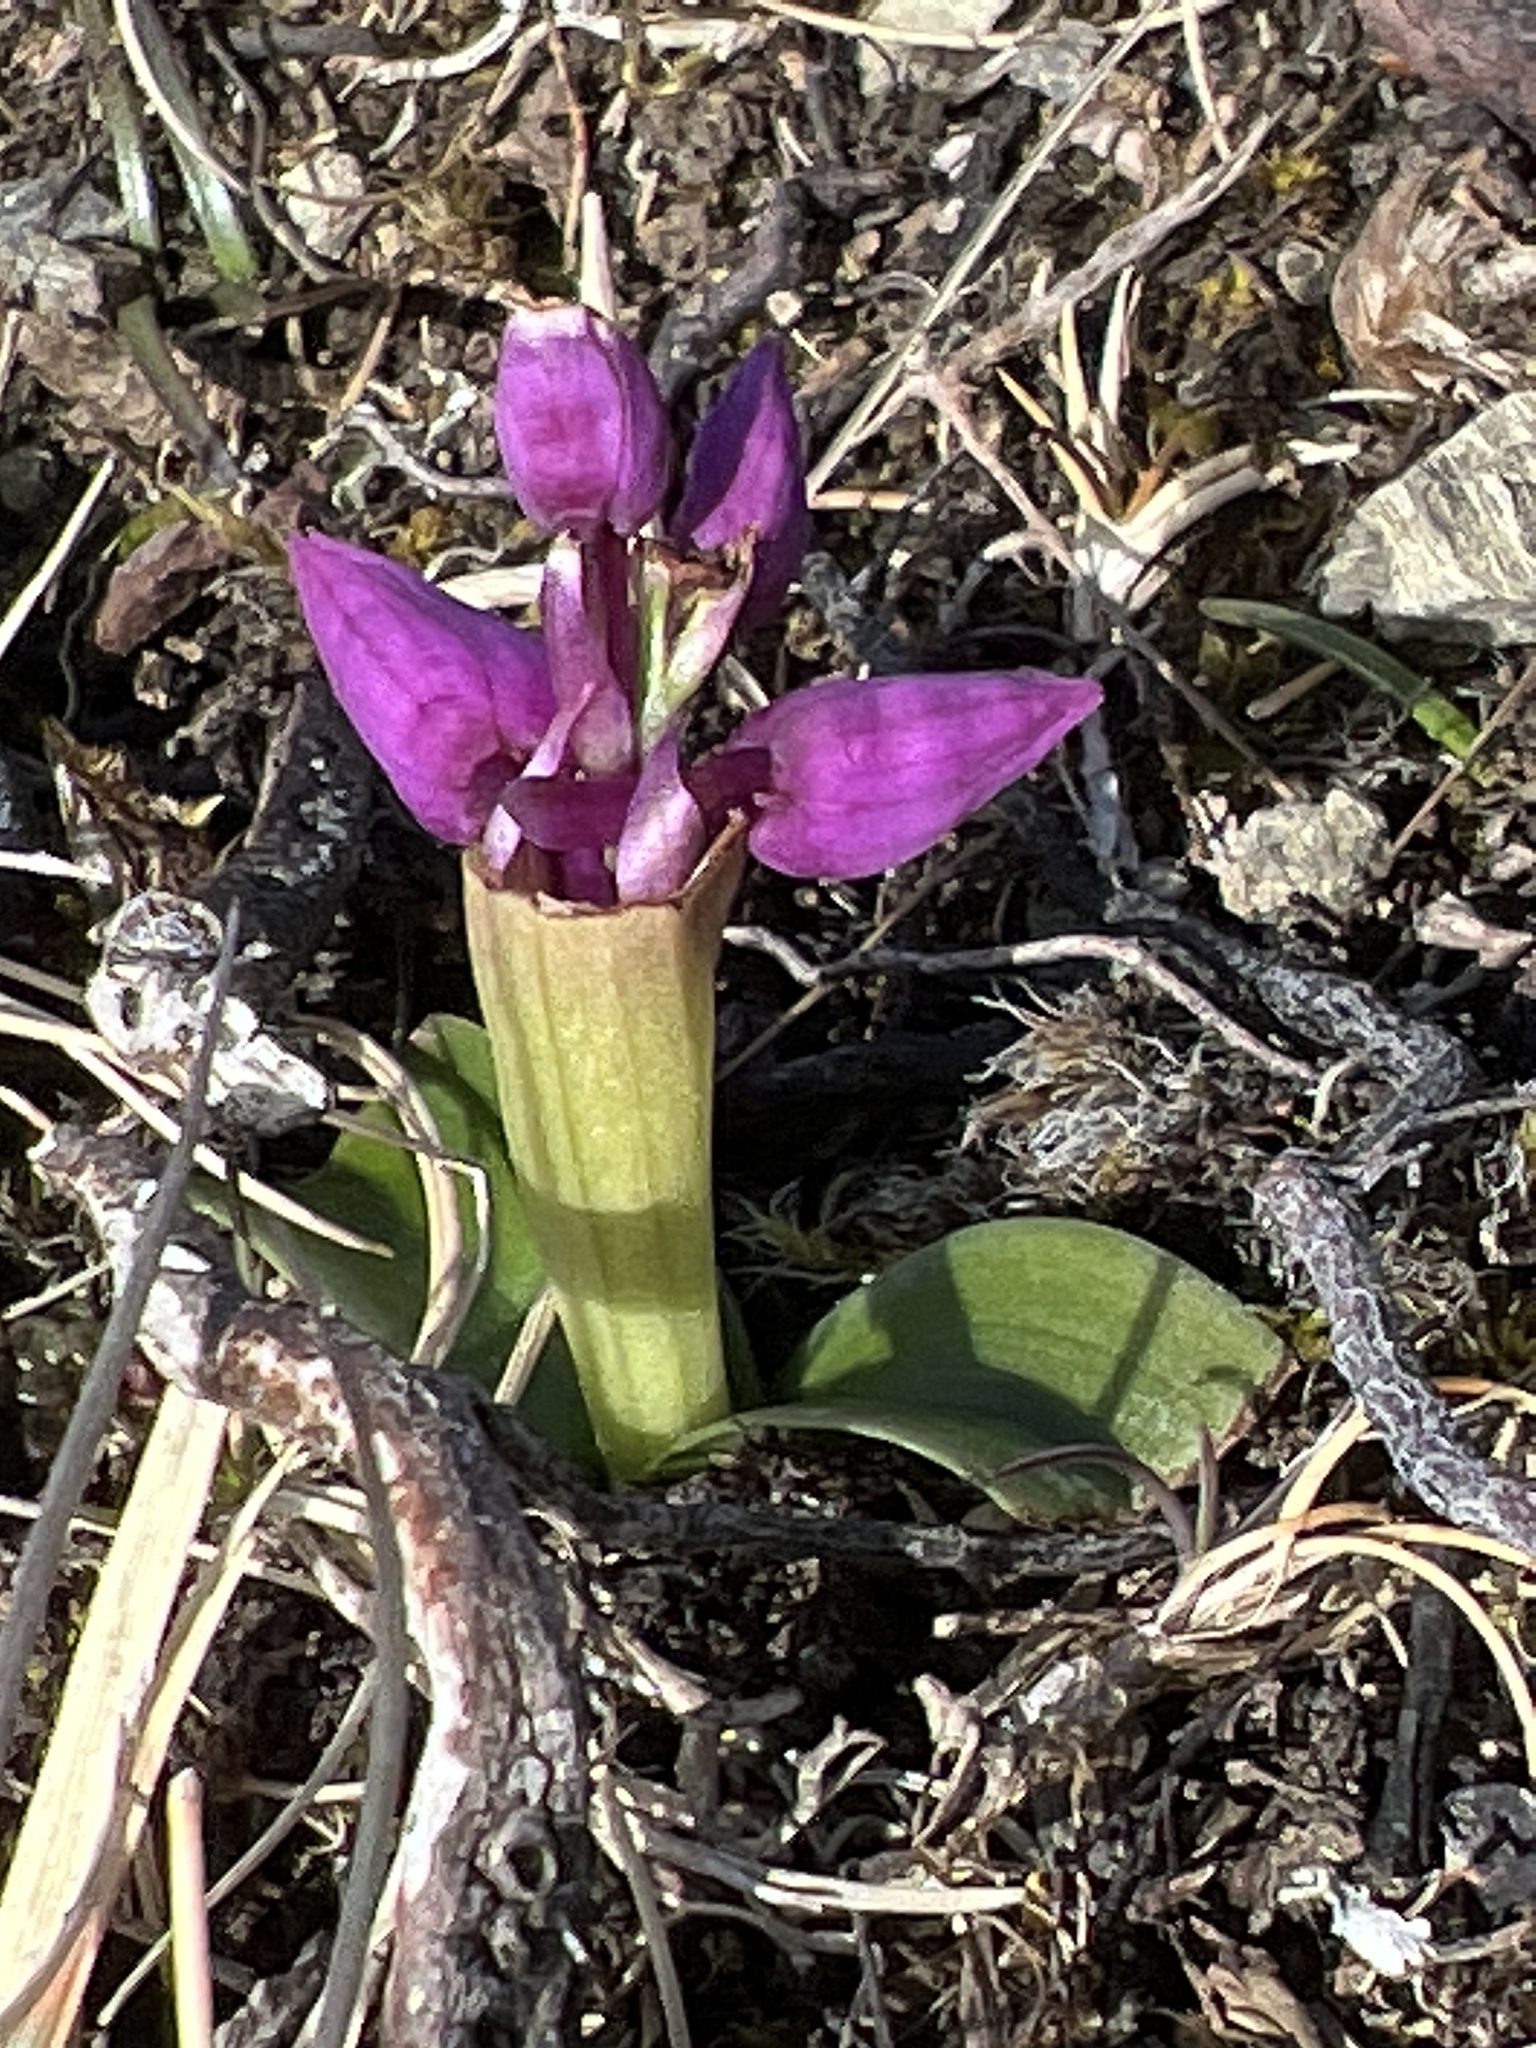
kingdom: Plantae
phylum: Tracheophyta
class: Liliopsida
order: Asparagales
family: Orchidaceae
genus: Orchis
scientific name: Orchis mascula
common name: Early-purple orchid
